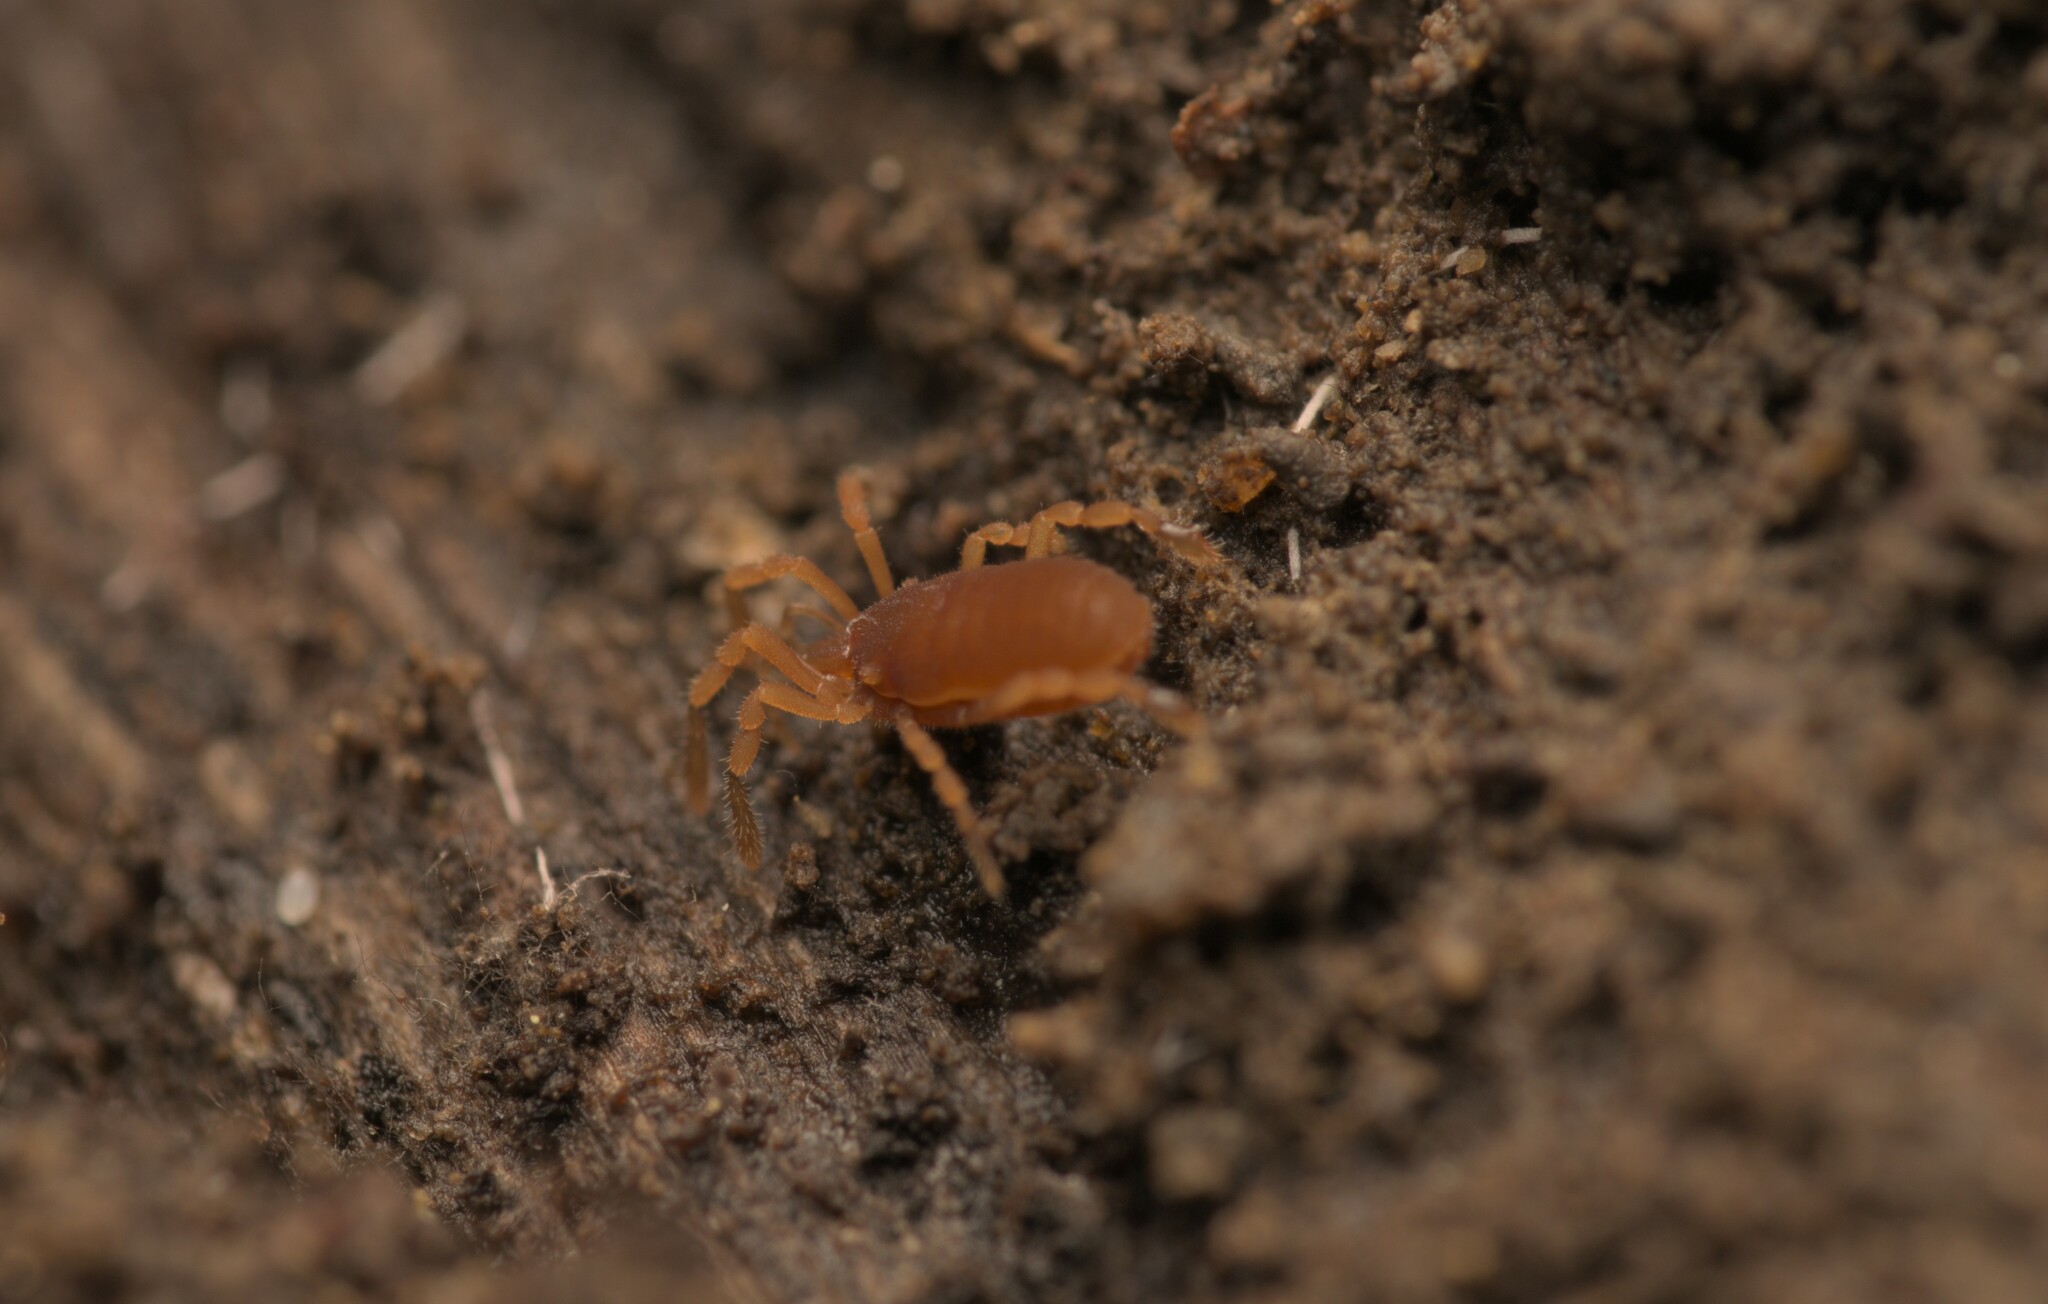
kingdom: Animalia
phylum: Arthropoda
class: Arachnida
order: Opiliones
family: Sironidae
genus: Siro
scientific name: Siro rubens
